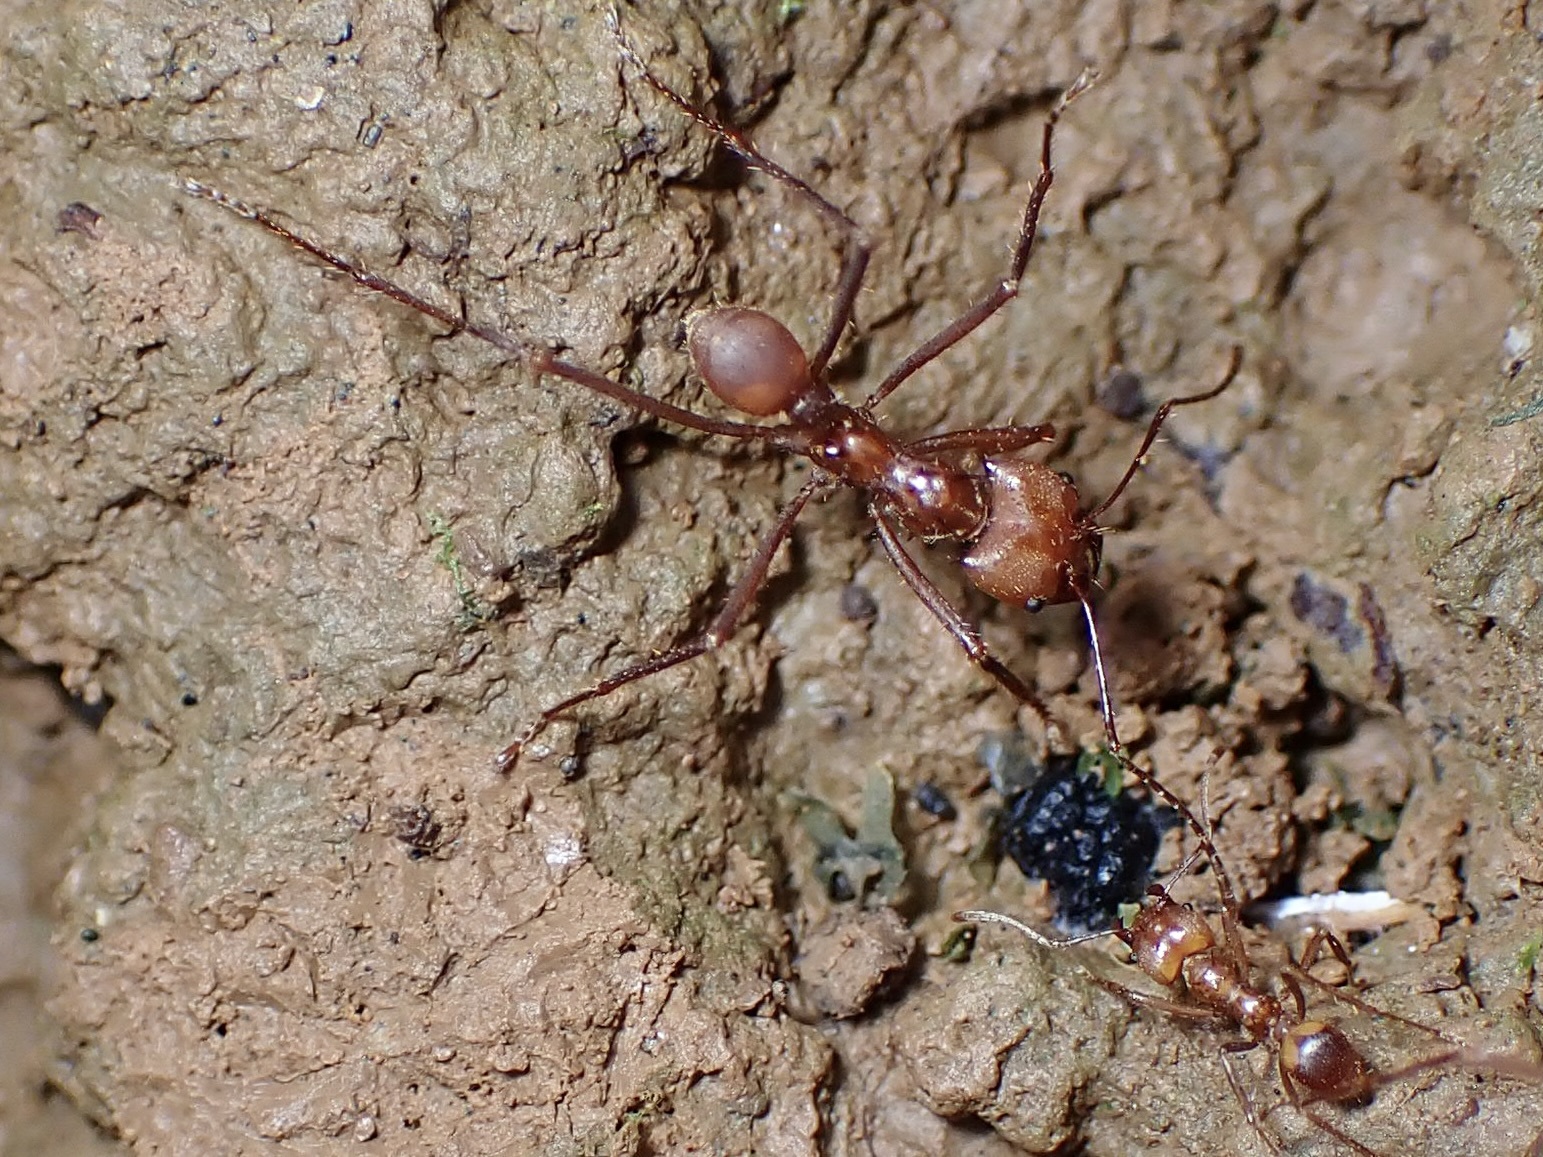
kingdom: Animalia
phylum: Arthropoda
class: Insecta
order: Hymenoptera
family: Formicidae
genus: Atta
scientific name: Atta cephalotes
